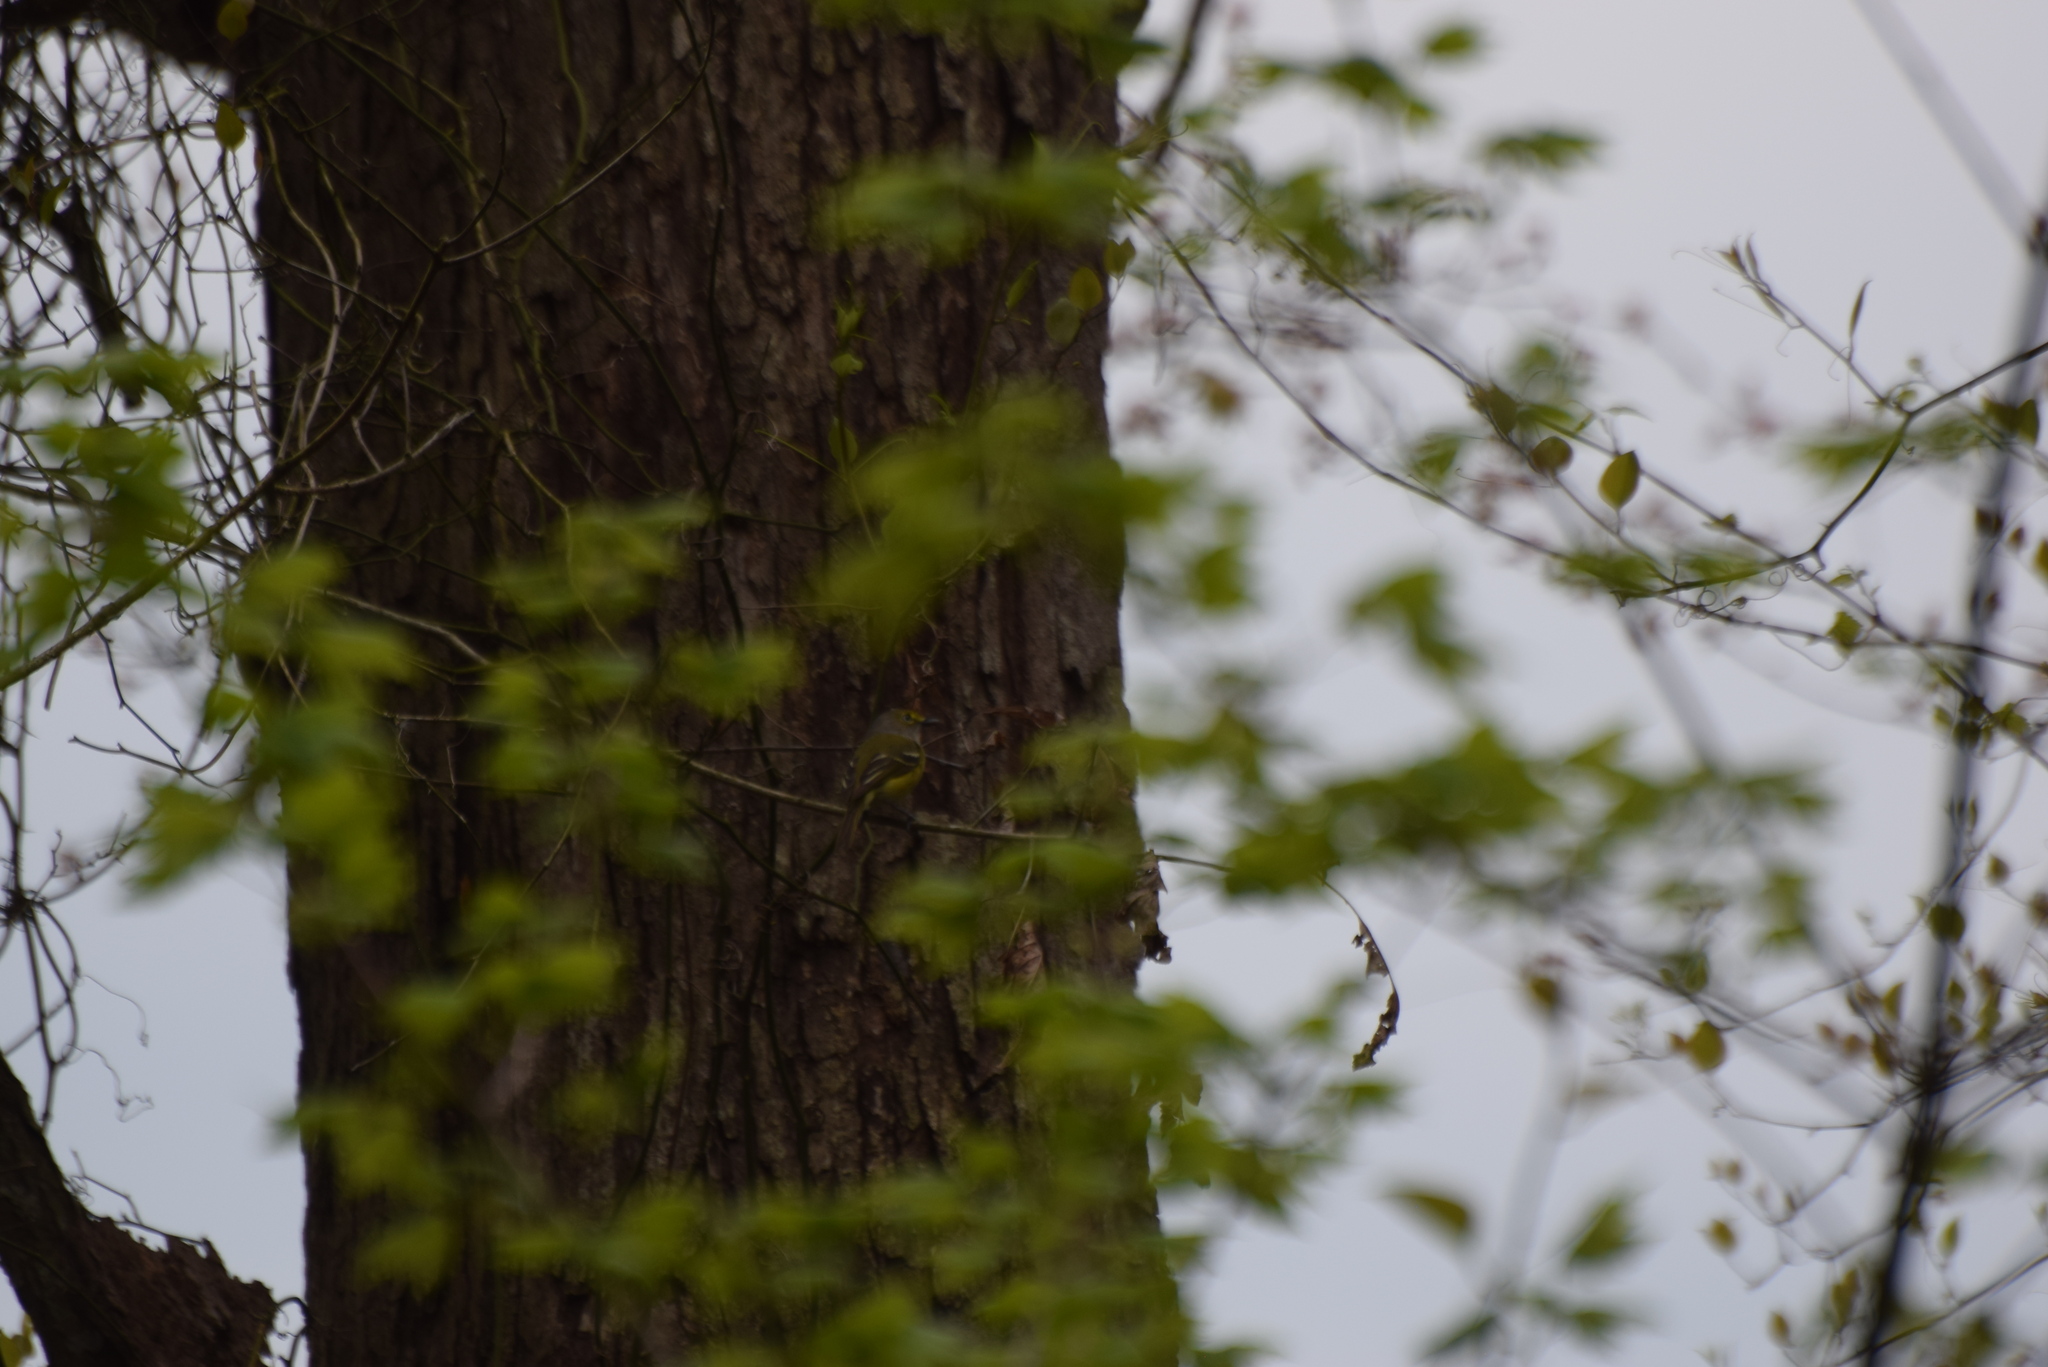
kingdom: Animalia
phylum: Chordata
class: Aves
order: Passeriformes
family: Vireonidae
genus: Vireo
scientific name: Vireo griseus
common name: White-eyed vireo
